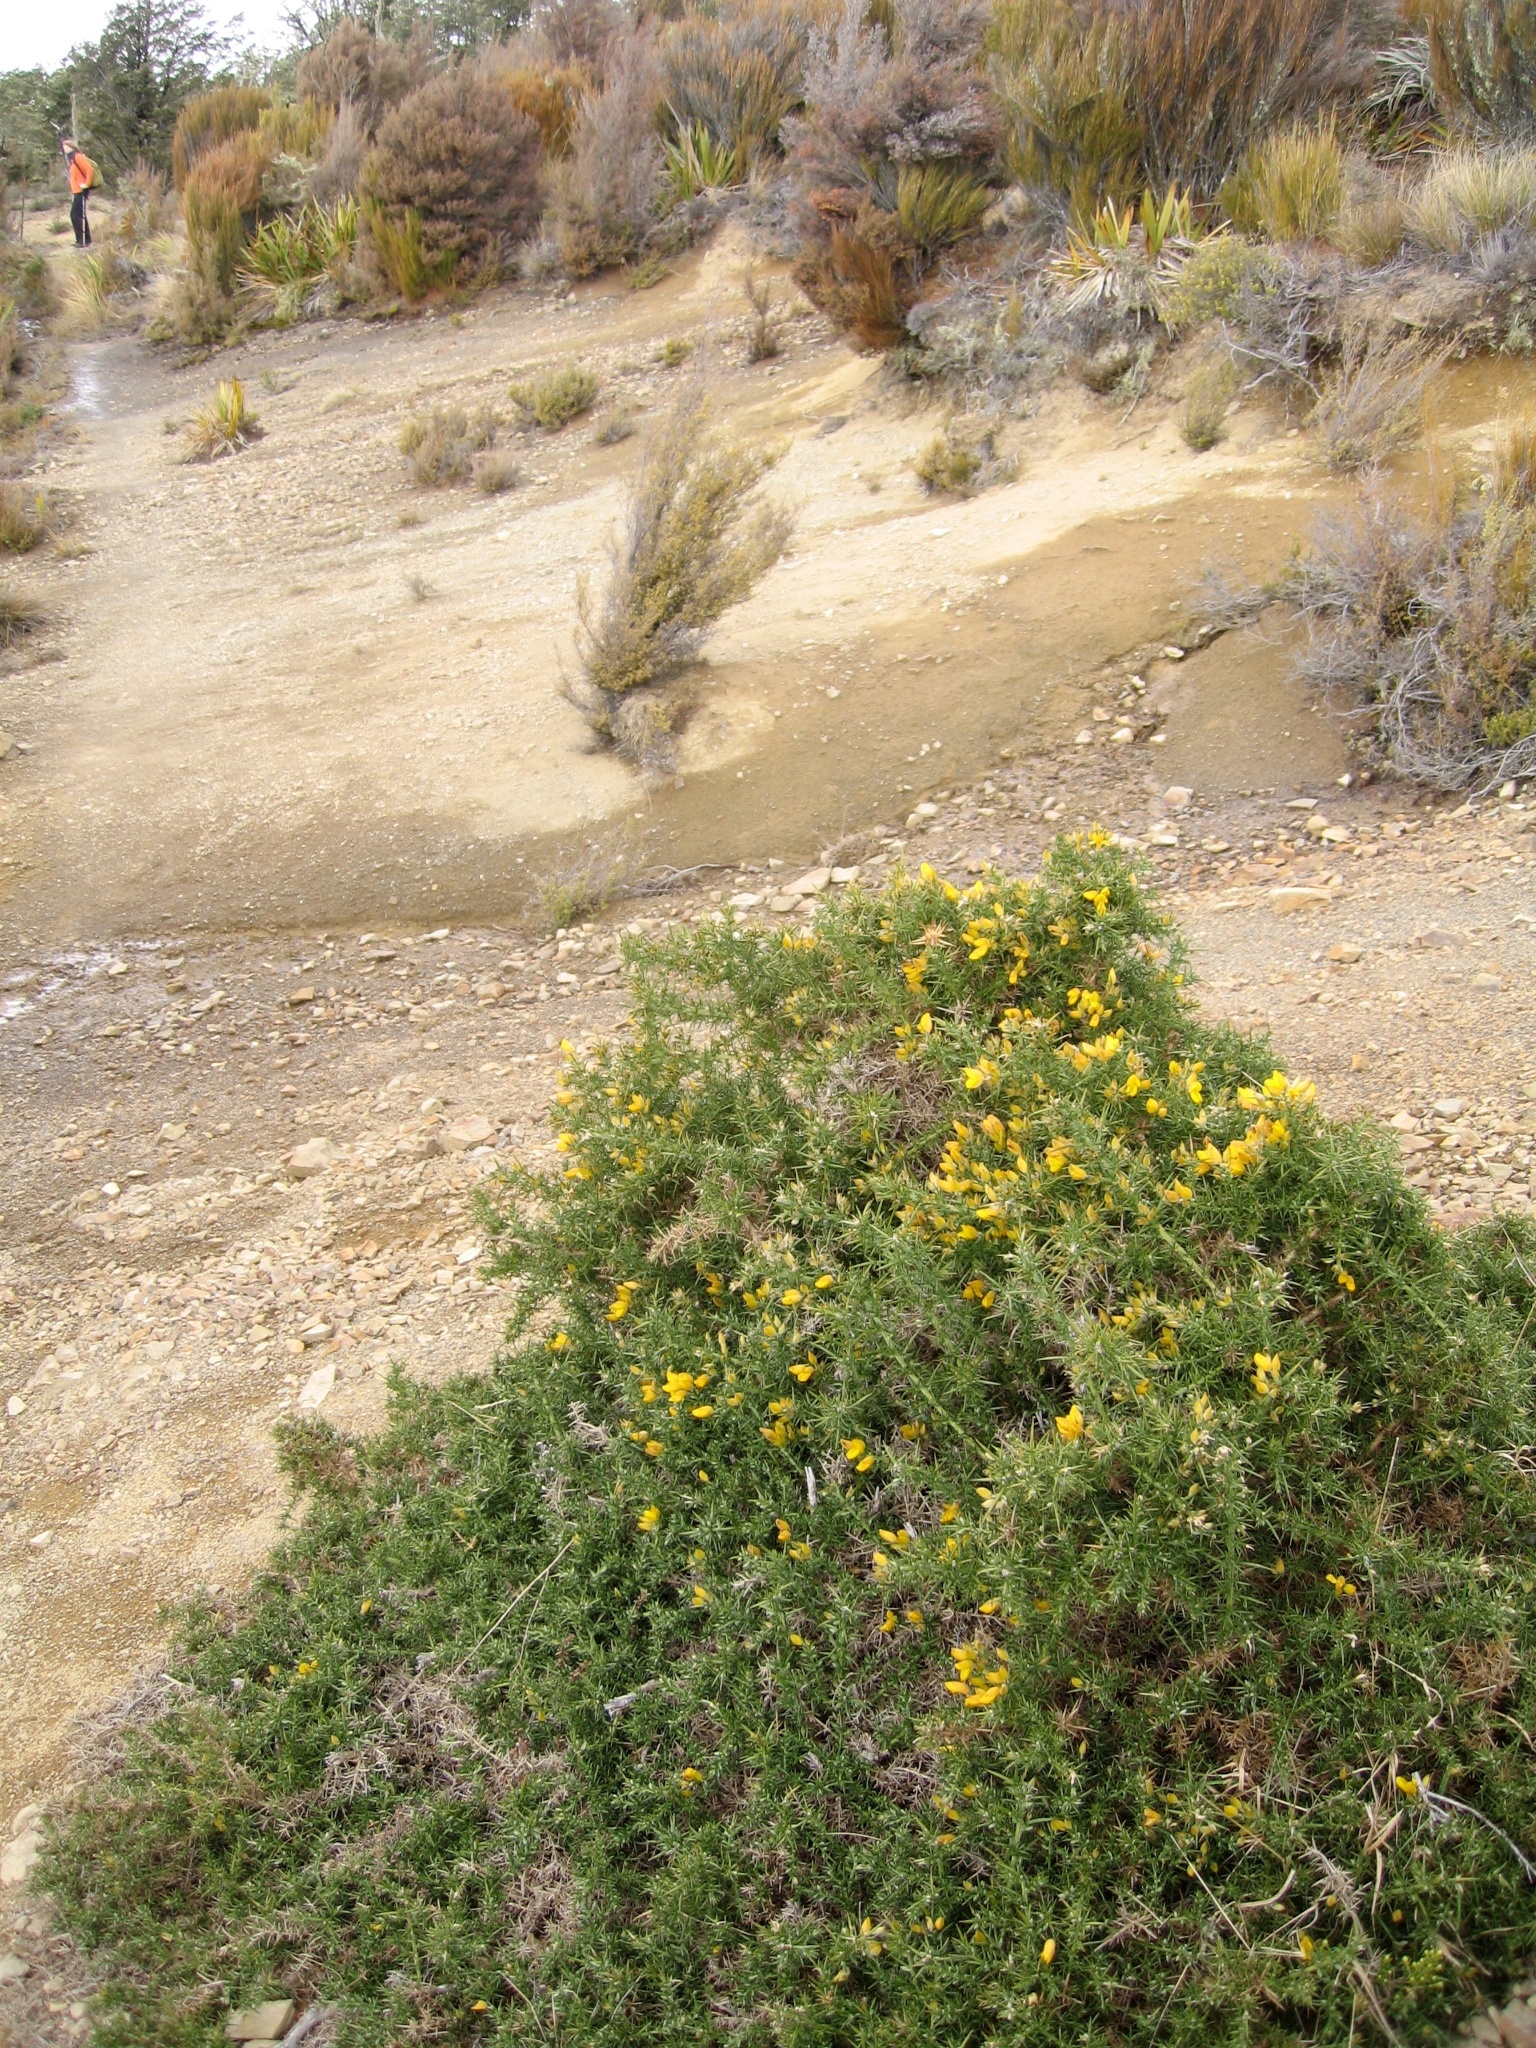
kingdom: Plantae
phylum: Tracheophyta
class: Magnoliopsida
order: Fabales
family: Fabaceae
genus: Ulex
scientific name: Ulex europaeus
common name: Common gorse
